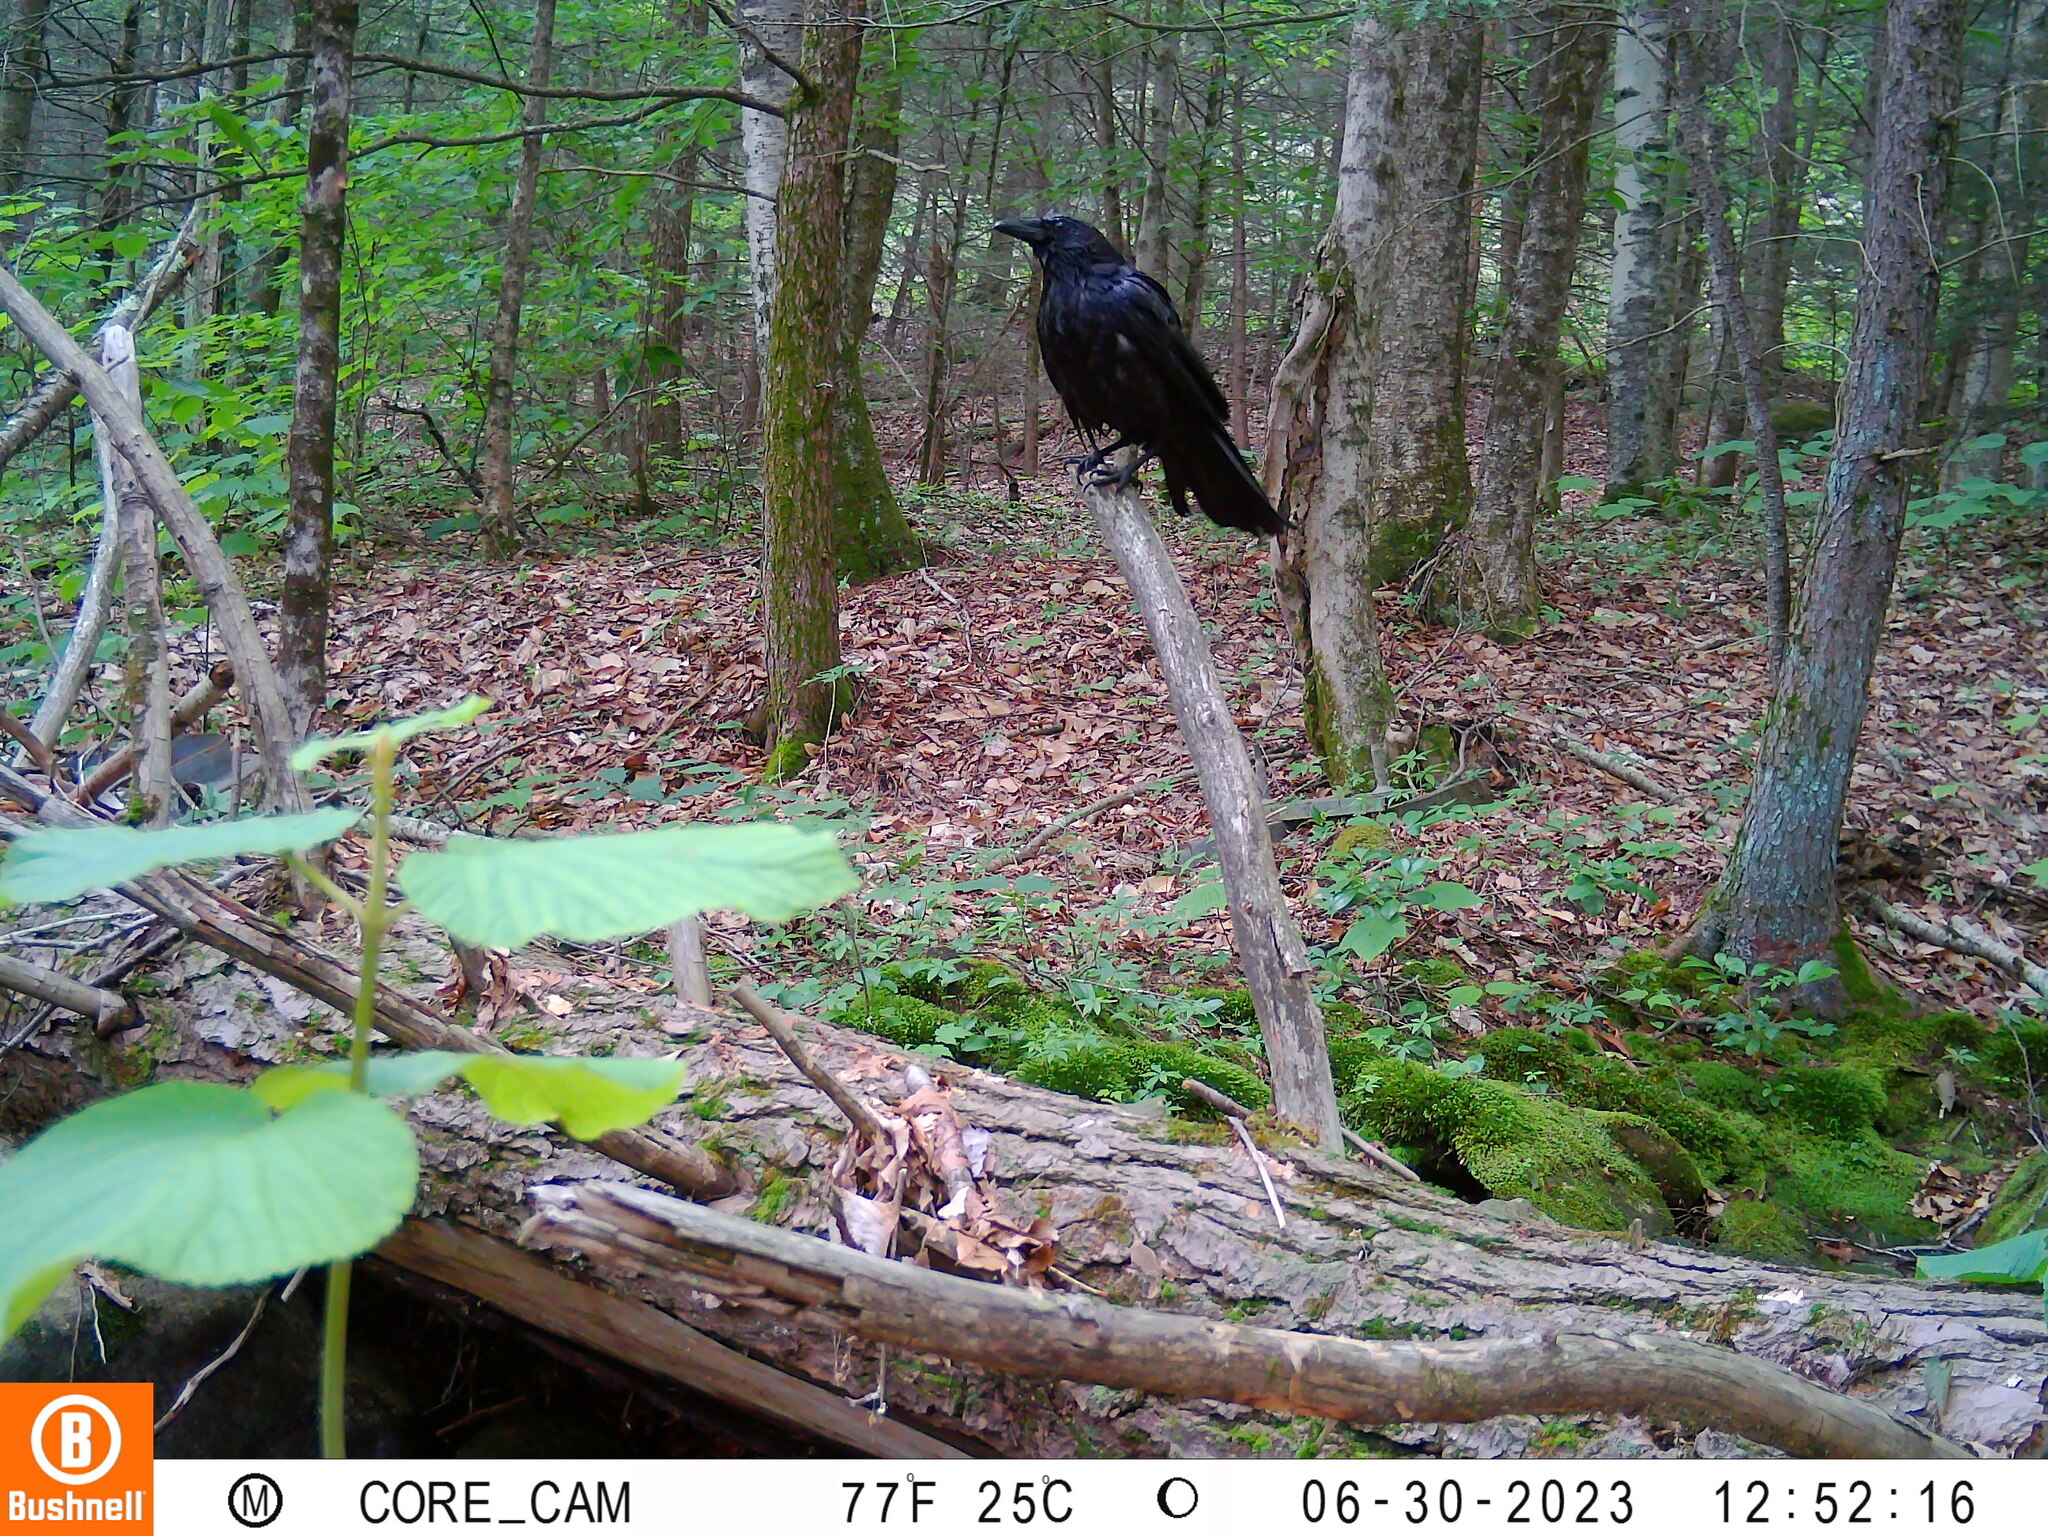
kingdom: Animalia
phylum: Chordata
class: Aves
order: Passeriformes
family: Corvidae
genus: Corvus
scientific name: Corvus corax
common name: Common raven
